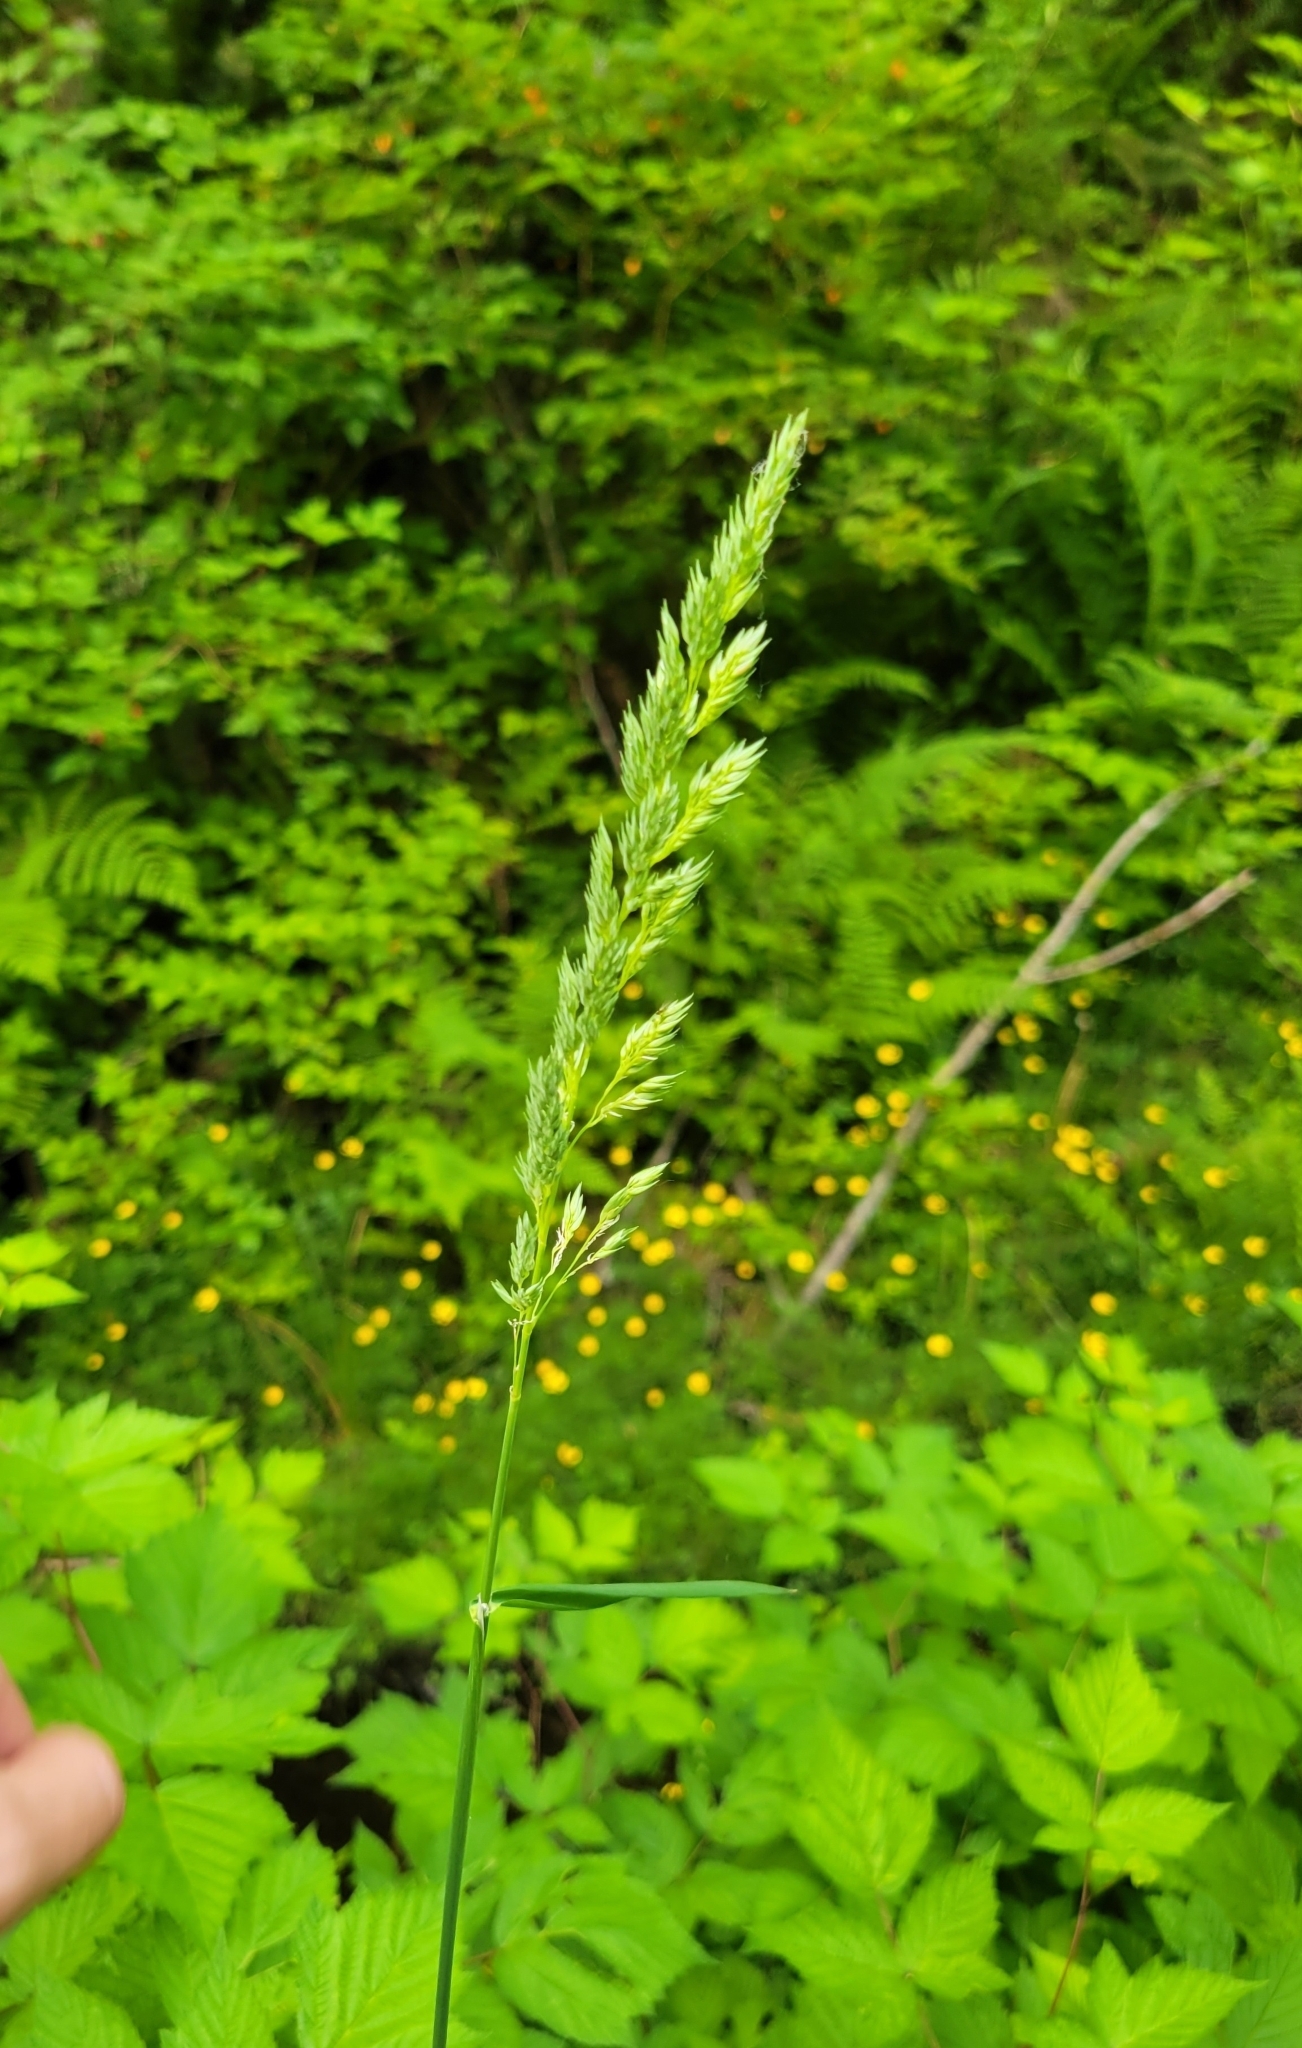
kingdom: Plantae
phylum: Tracheophyta
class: Liliopsida
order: Poales
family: Poaceae
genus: Phalaris
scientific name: Phalaris arundinacea
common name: Reed canary-grass
